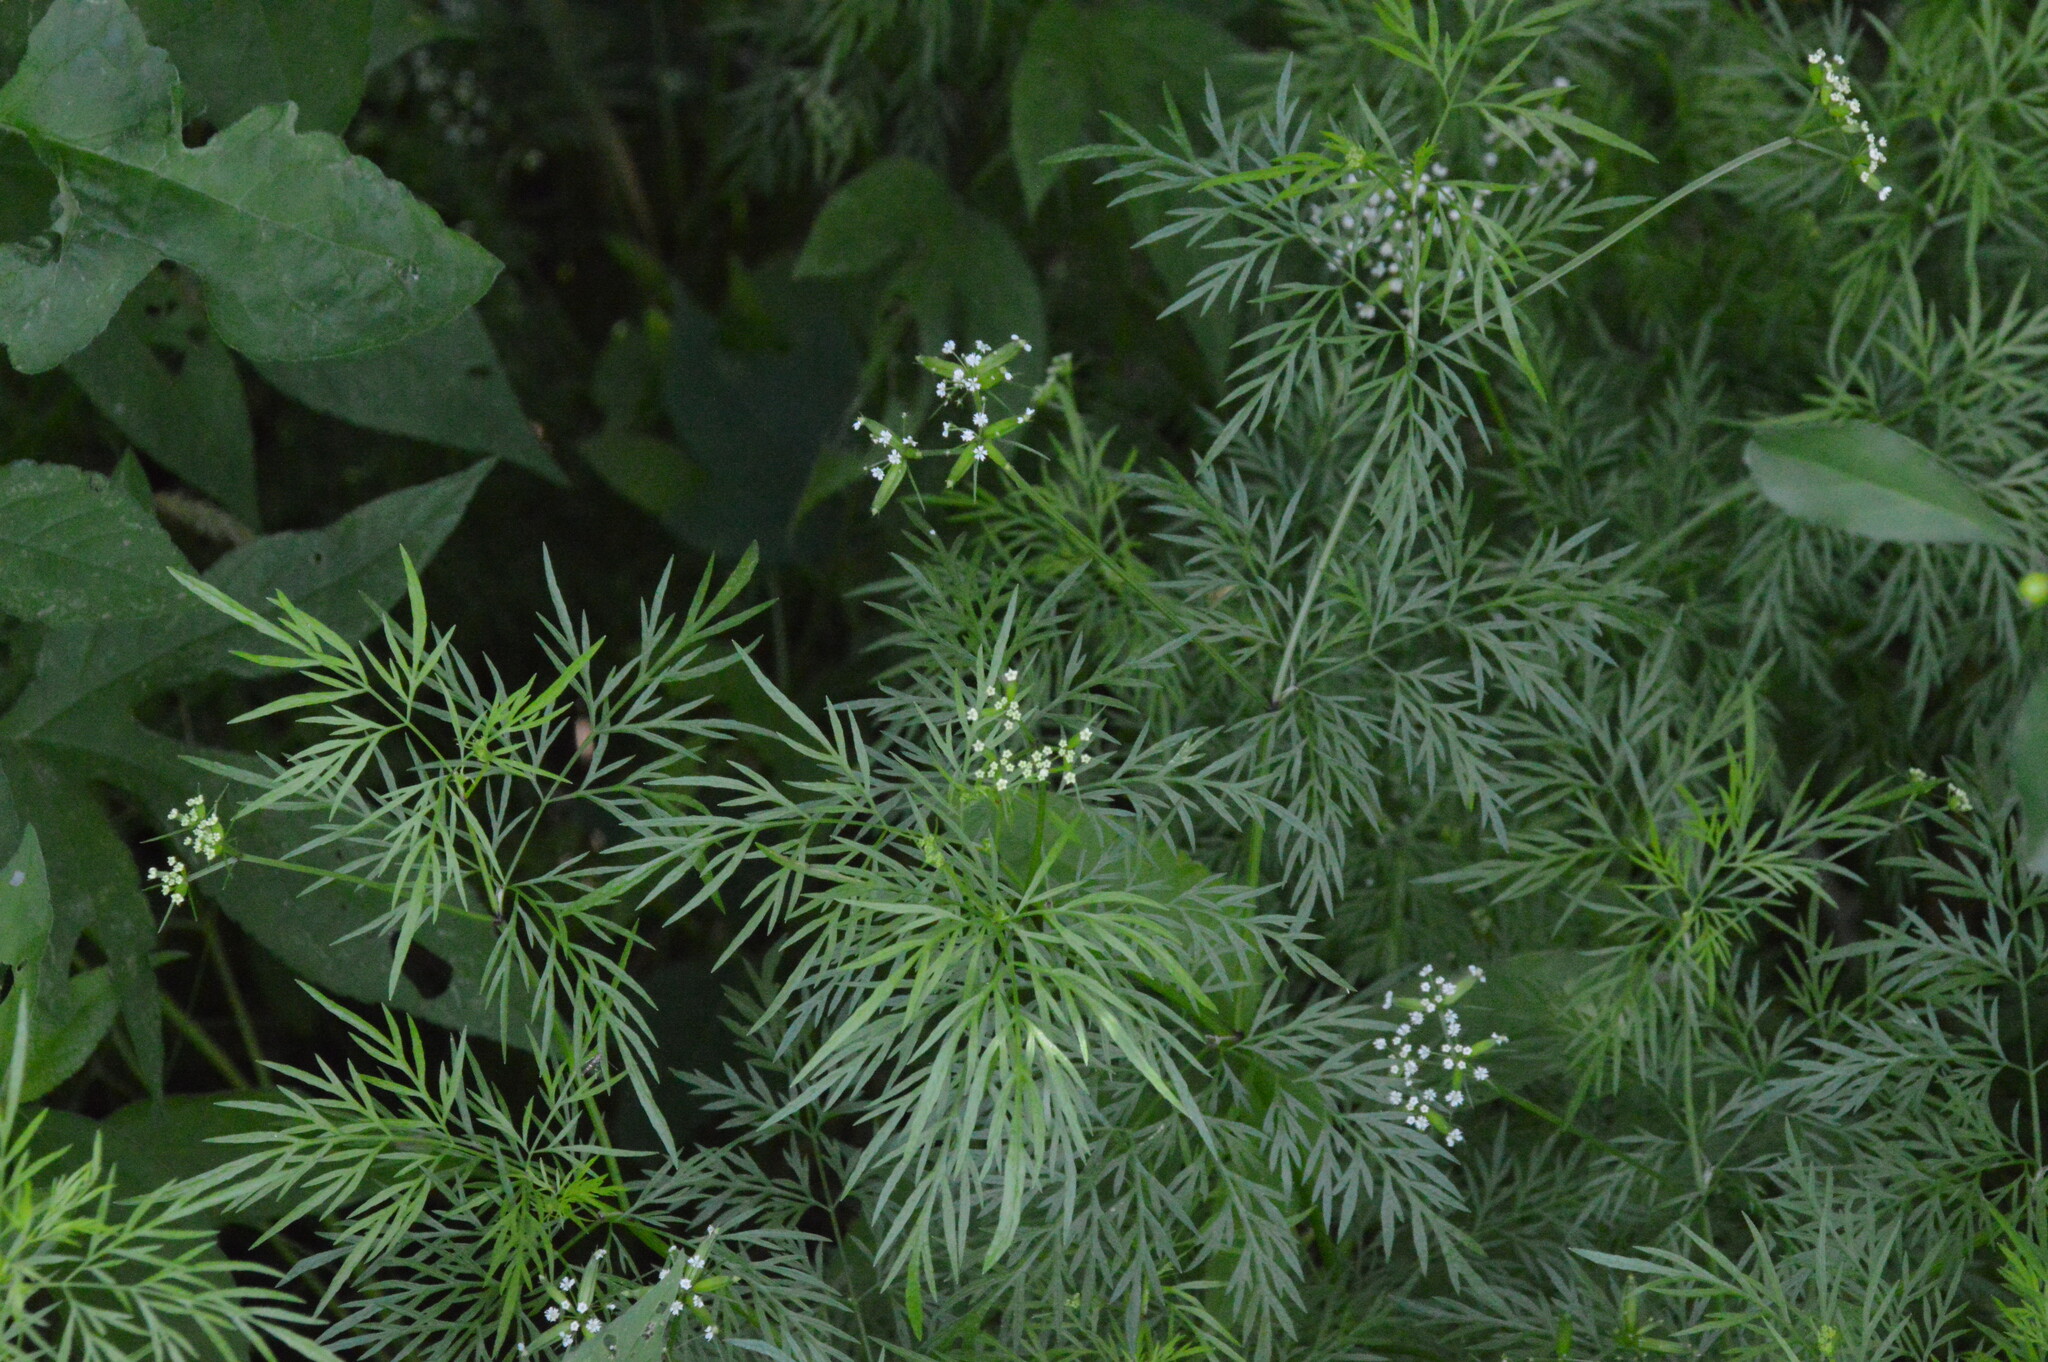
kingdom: Plantae
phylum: Tracheophyta
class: Magnoliopsida
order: Apiales
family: Apiaceae
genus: Trepocarpus
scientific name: Trepocarpus aethusae
